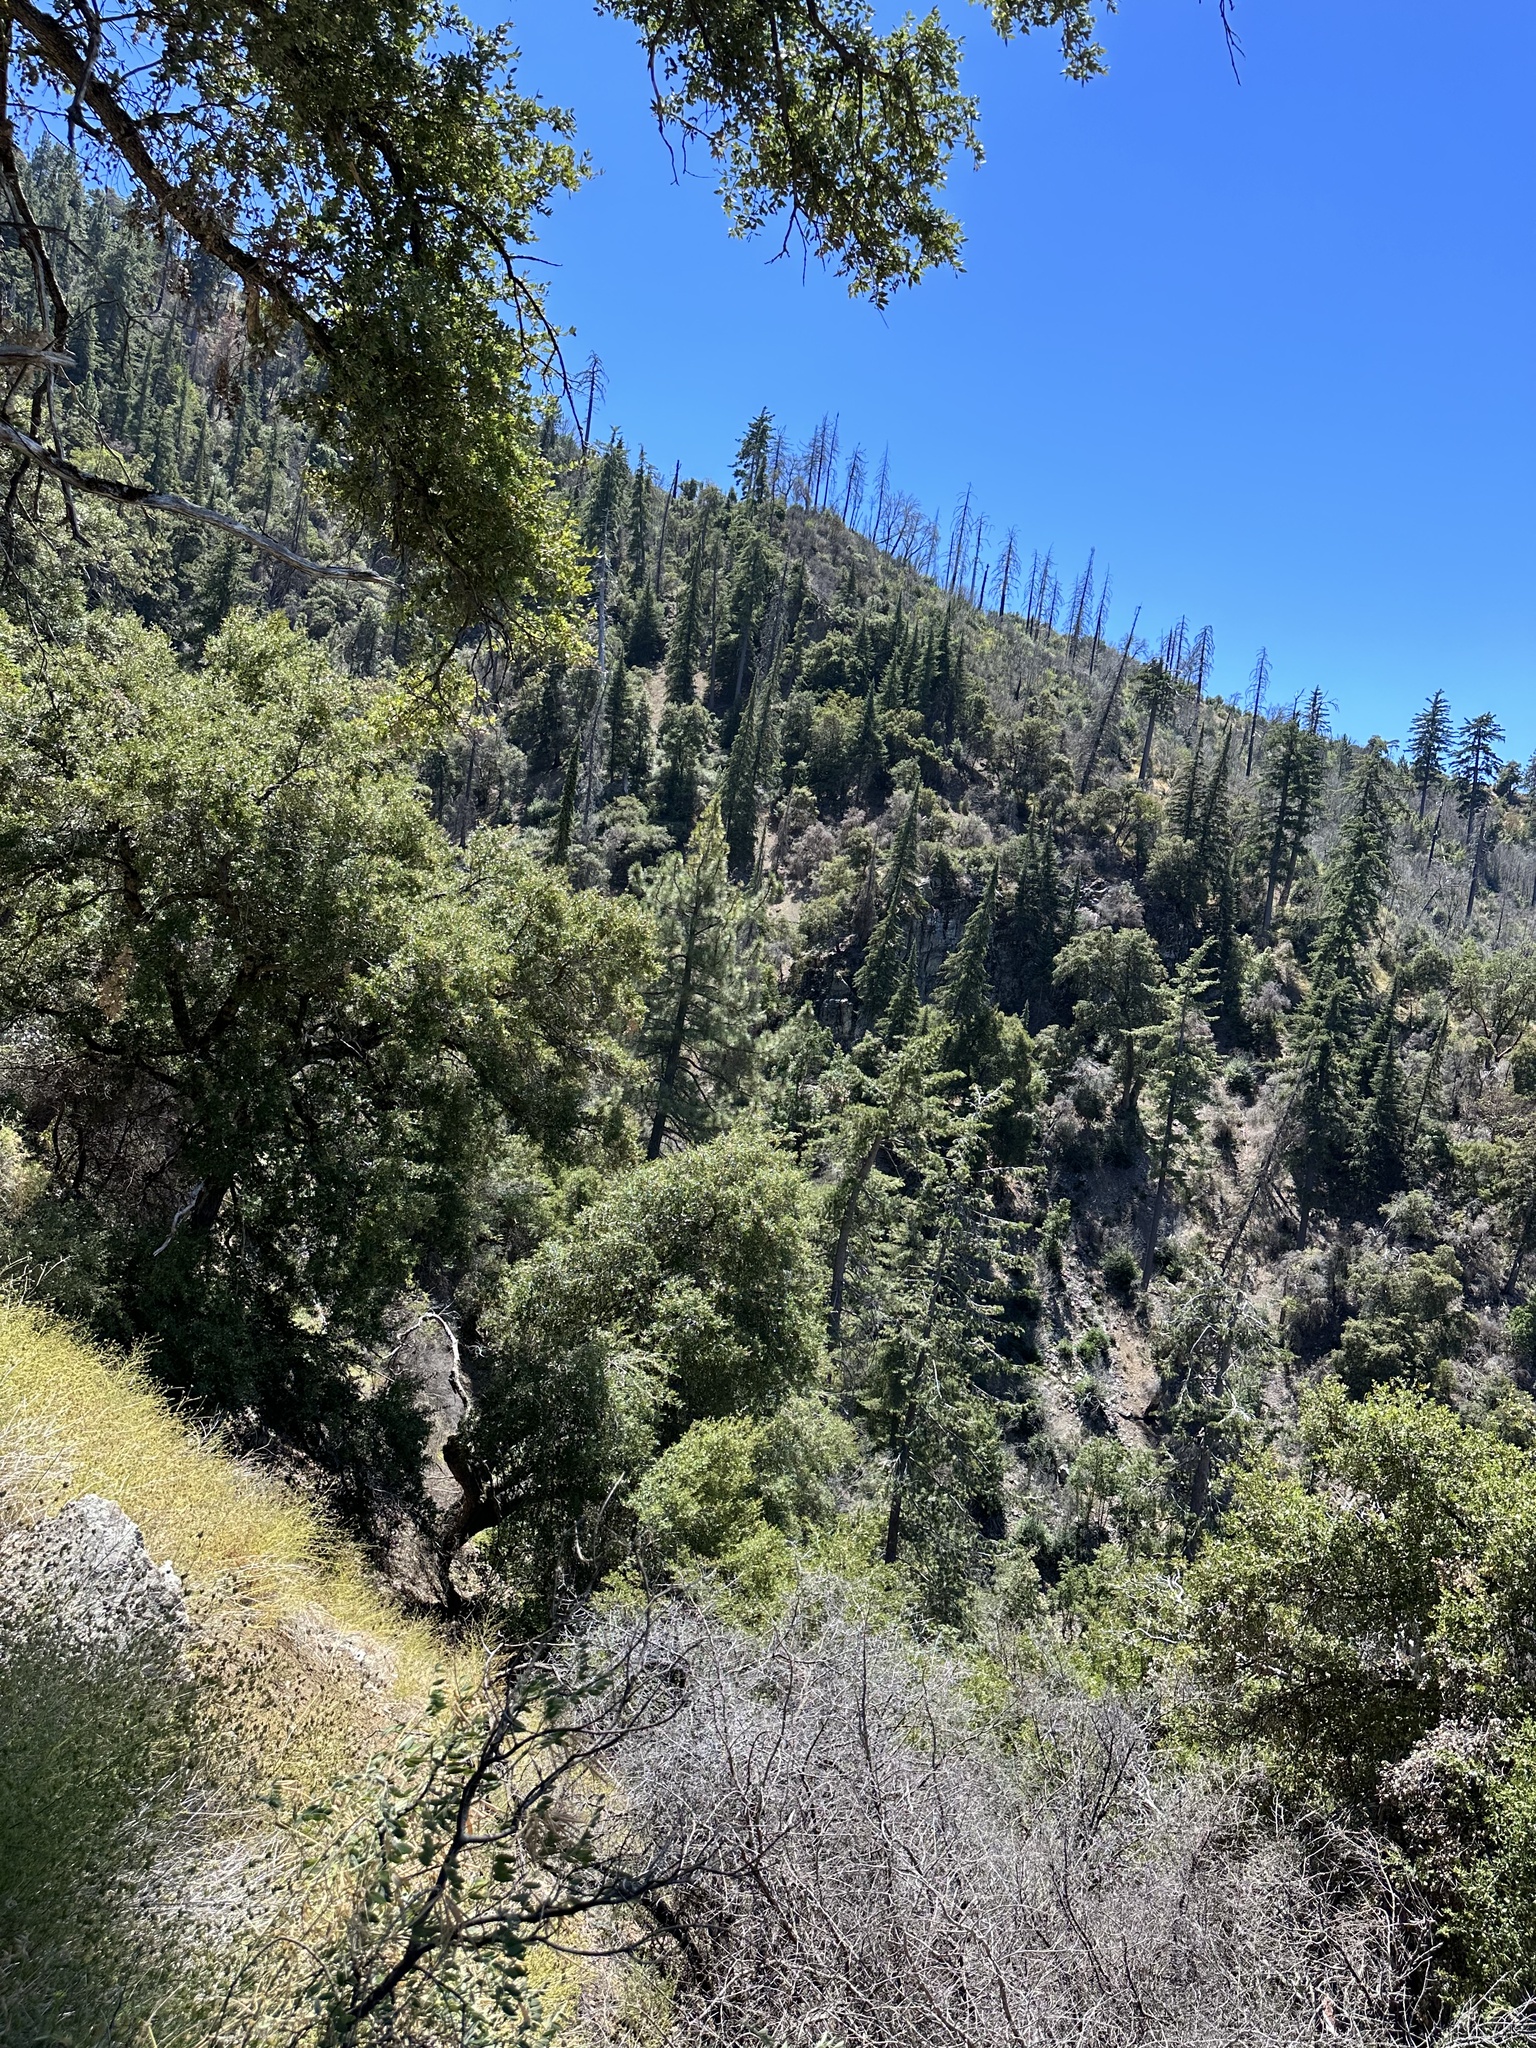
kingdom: Plantae
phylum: Tracheophyta
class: Pinopsida
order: Pinales
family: Pinaceae
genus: Abies
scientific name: Abies bracteata
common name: Bristlecone fir
